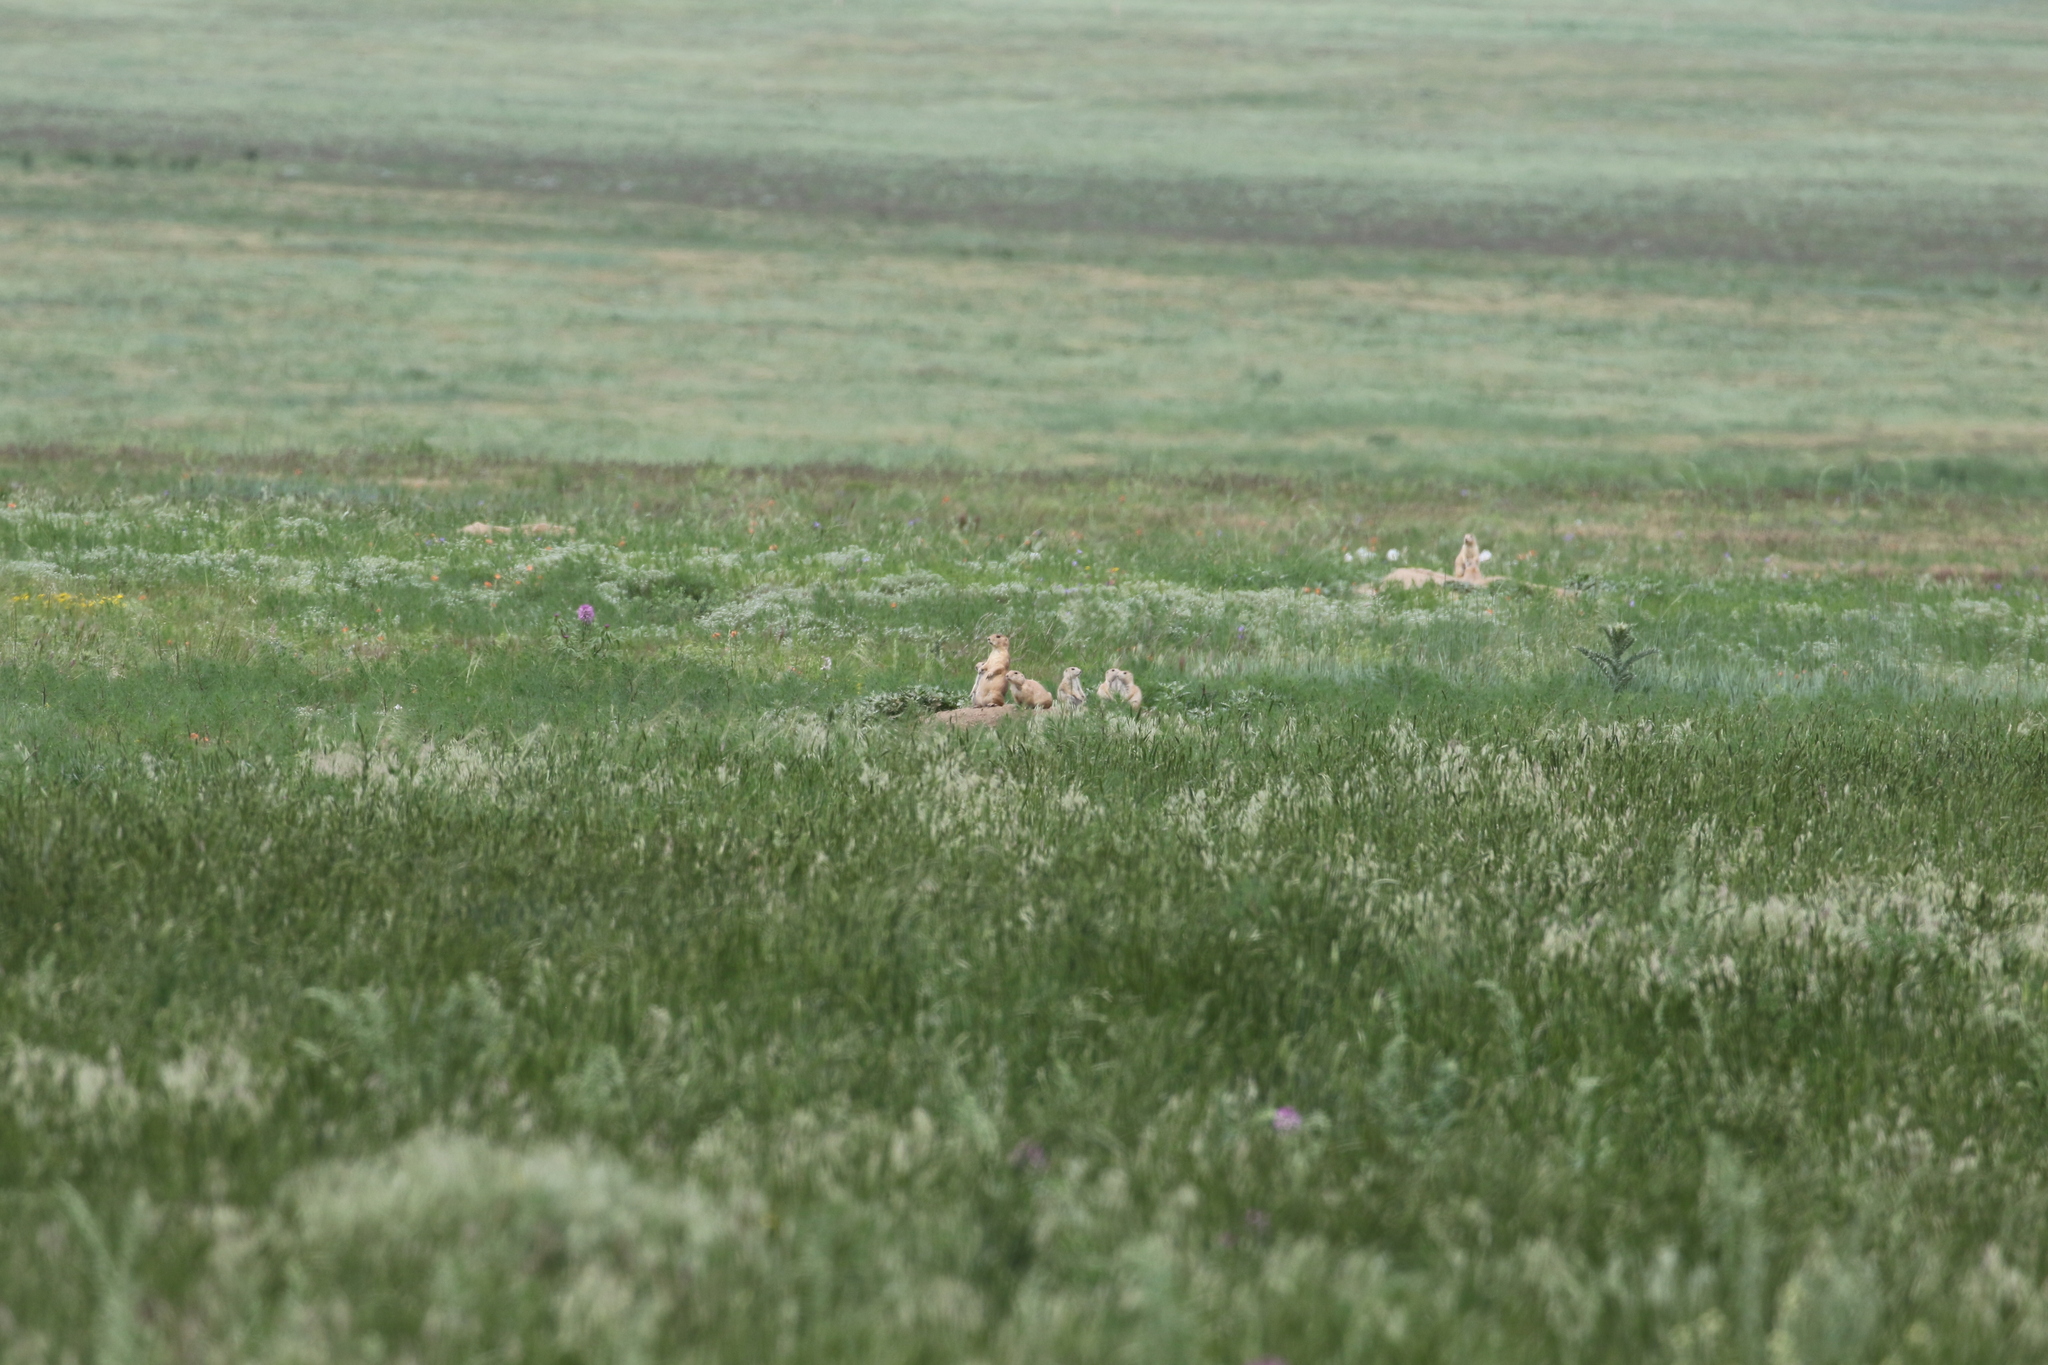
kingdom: Animalia
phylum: Chordata
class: Mammalia
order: Rodentia
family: Sciuridae
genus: Cynomys
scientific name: Cynomys ludovicianus
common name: Black-tailed prairie dog
